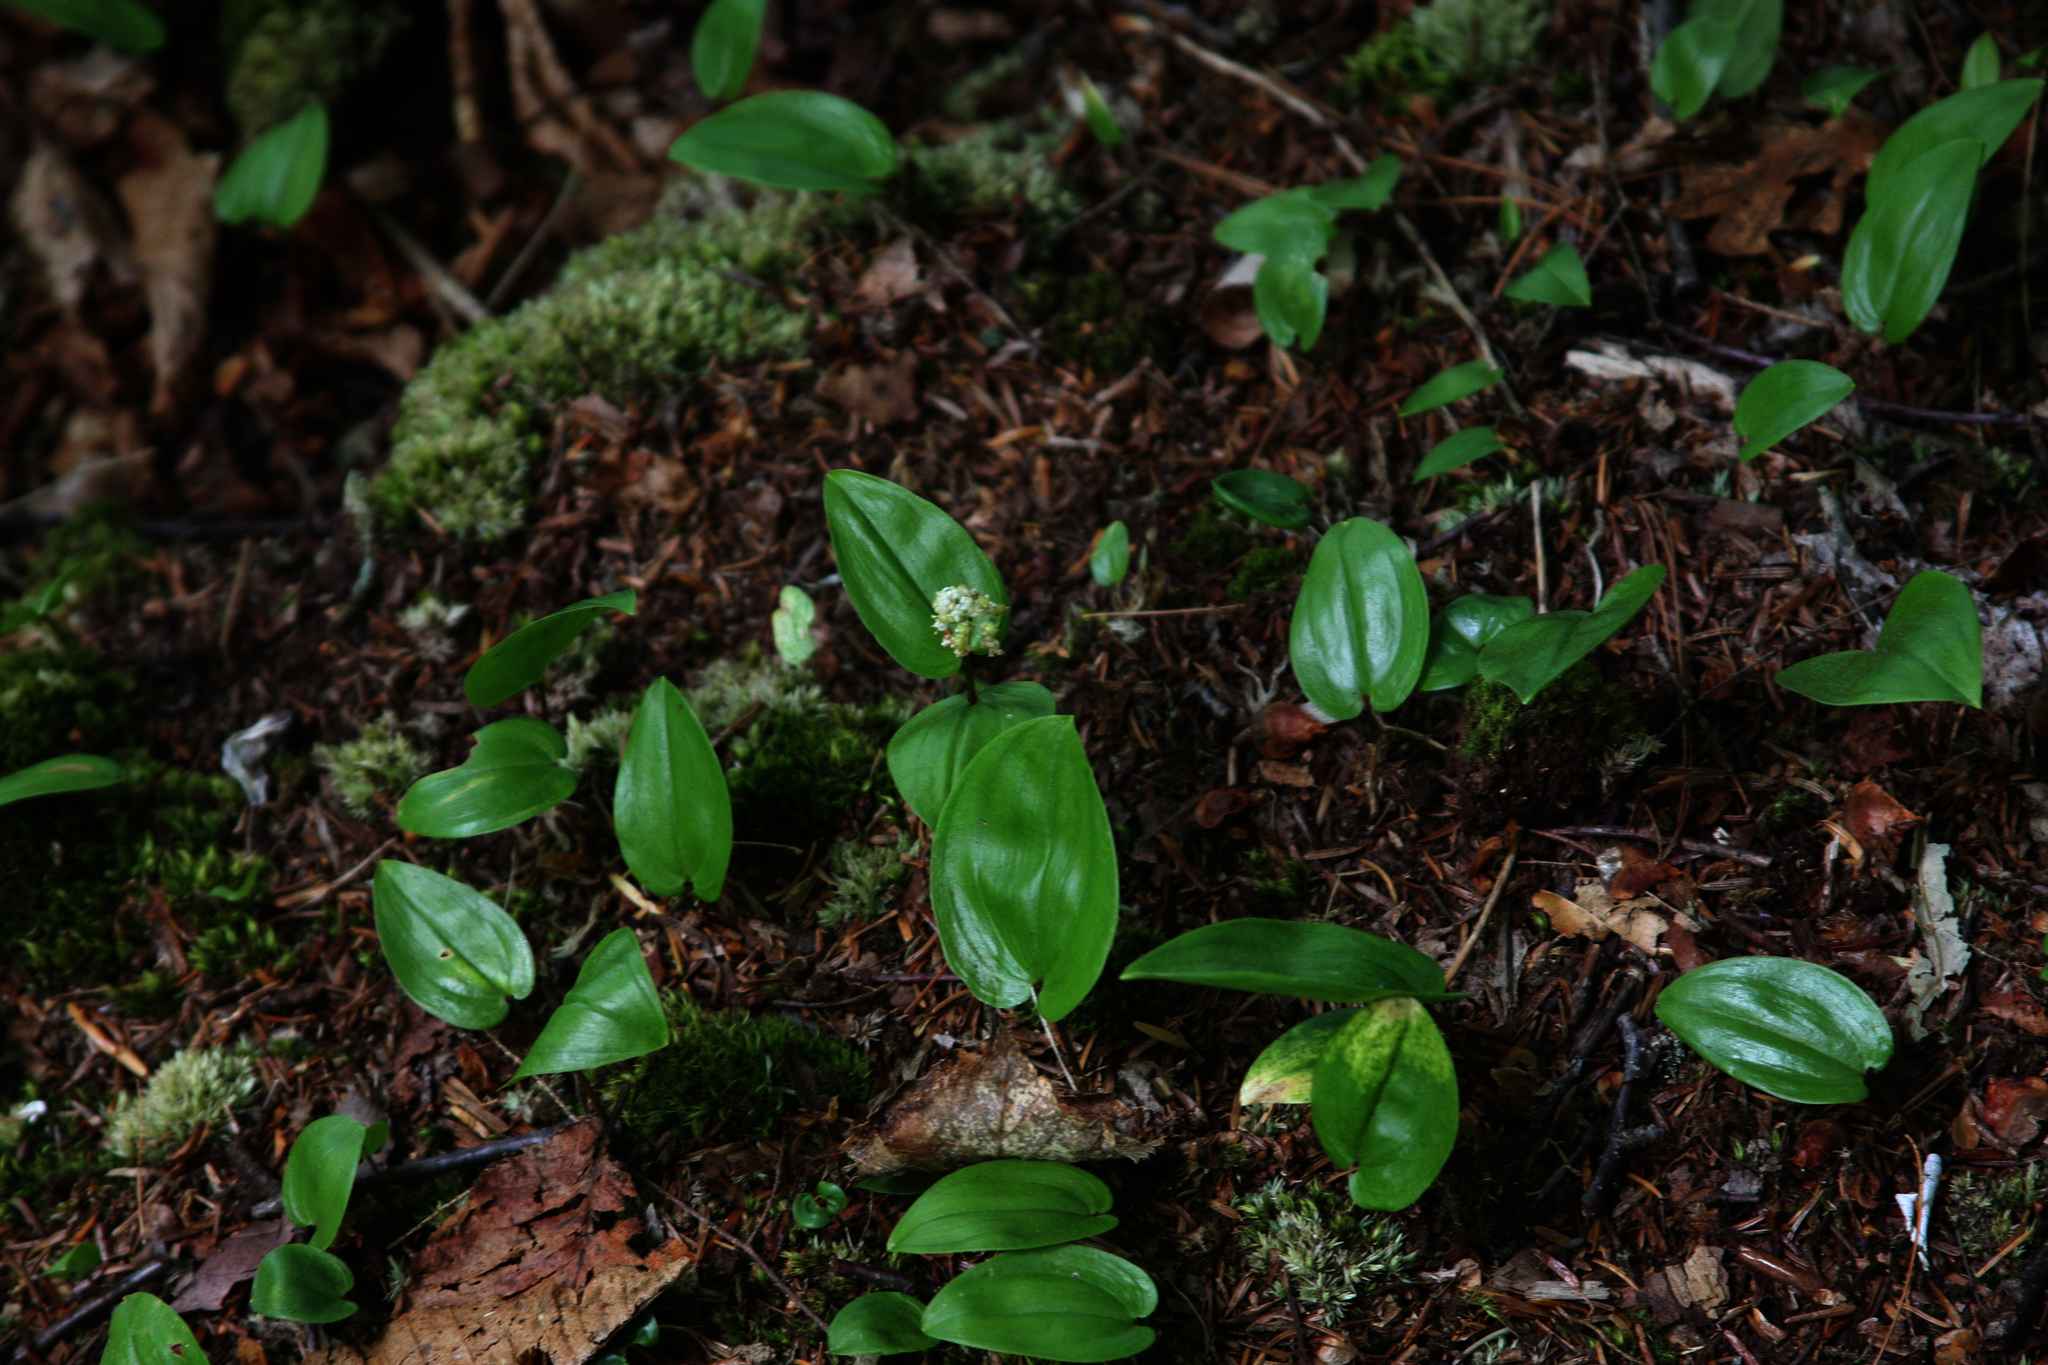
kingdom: Plantae
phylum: Tracheophyta
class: Liliopsida
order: Asparagales
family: Asparagaceae
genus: Maianthemum
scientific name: Maianthemum canadense
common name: False lily-of-the-valley
